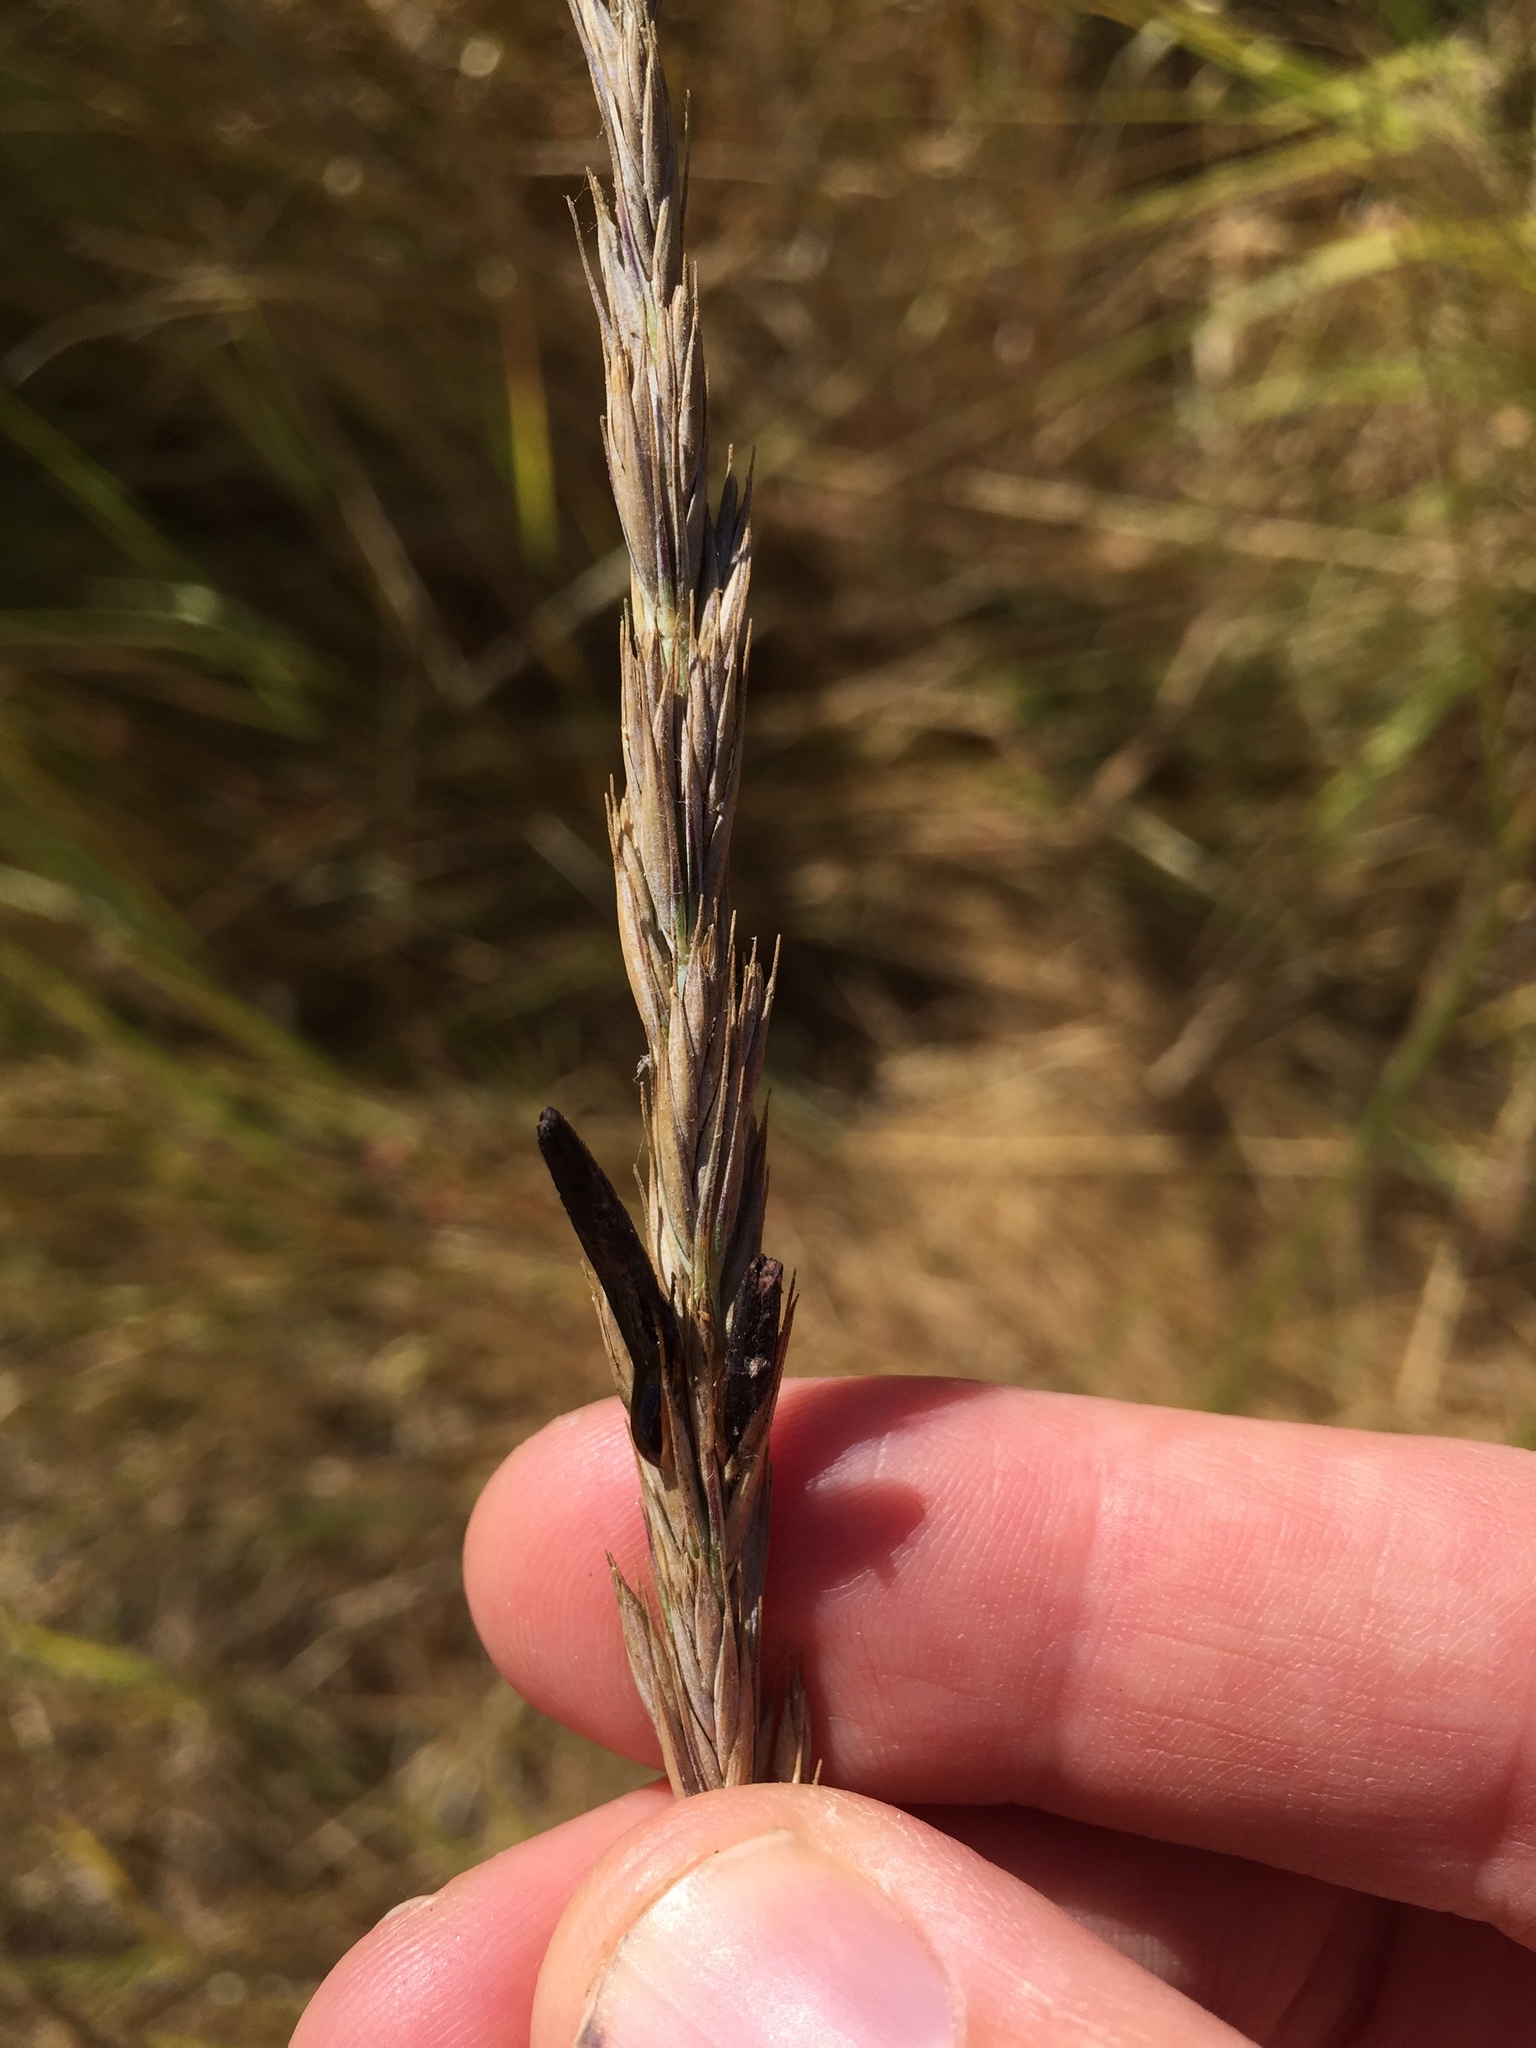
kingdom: Fungi
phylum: Ascomycota
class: Sordariomycetes
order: Hypocreales
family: Clavicipitaceae
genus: Claviceps
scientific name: Claviceps purpurea
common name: Rye ergot
